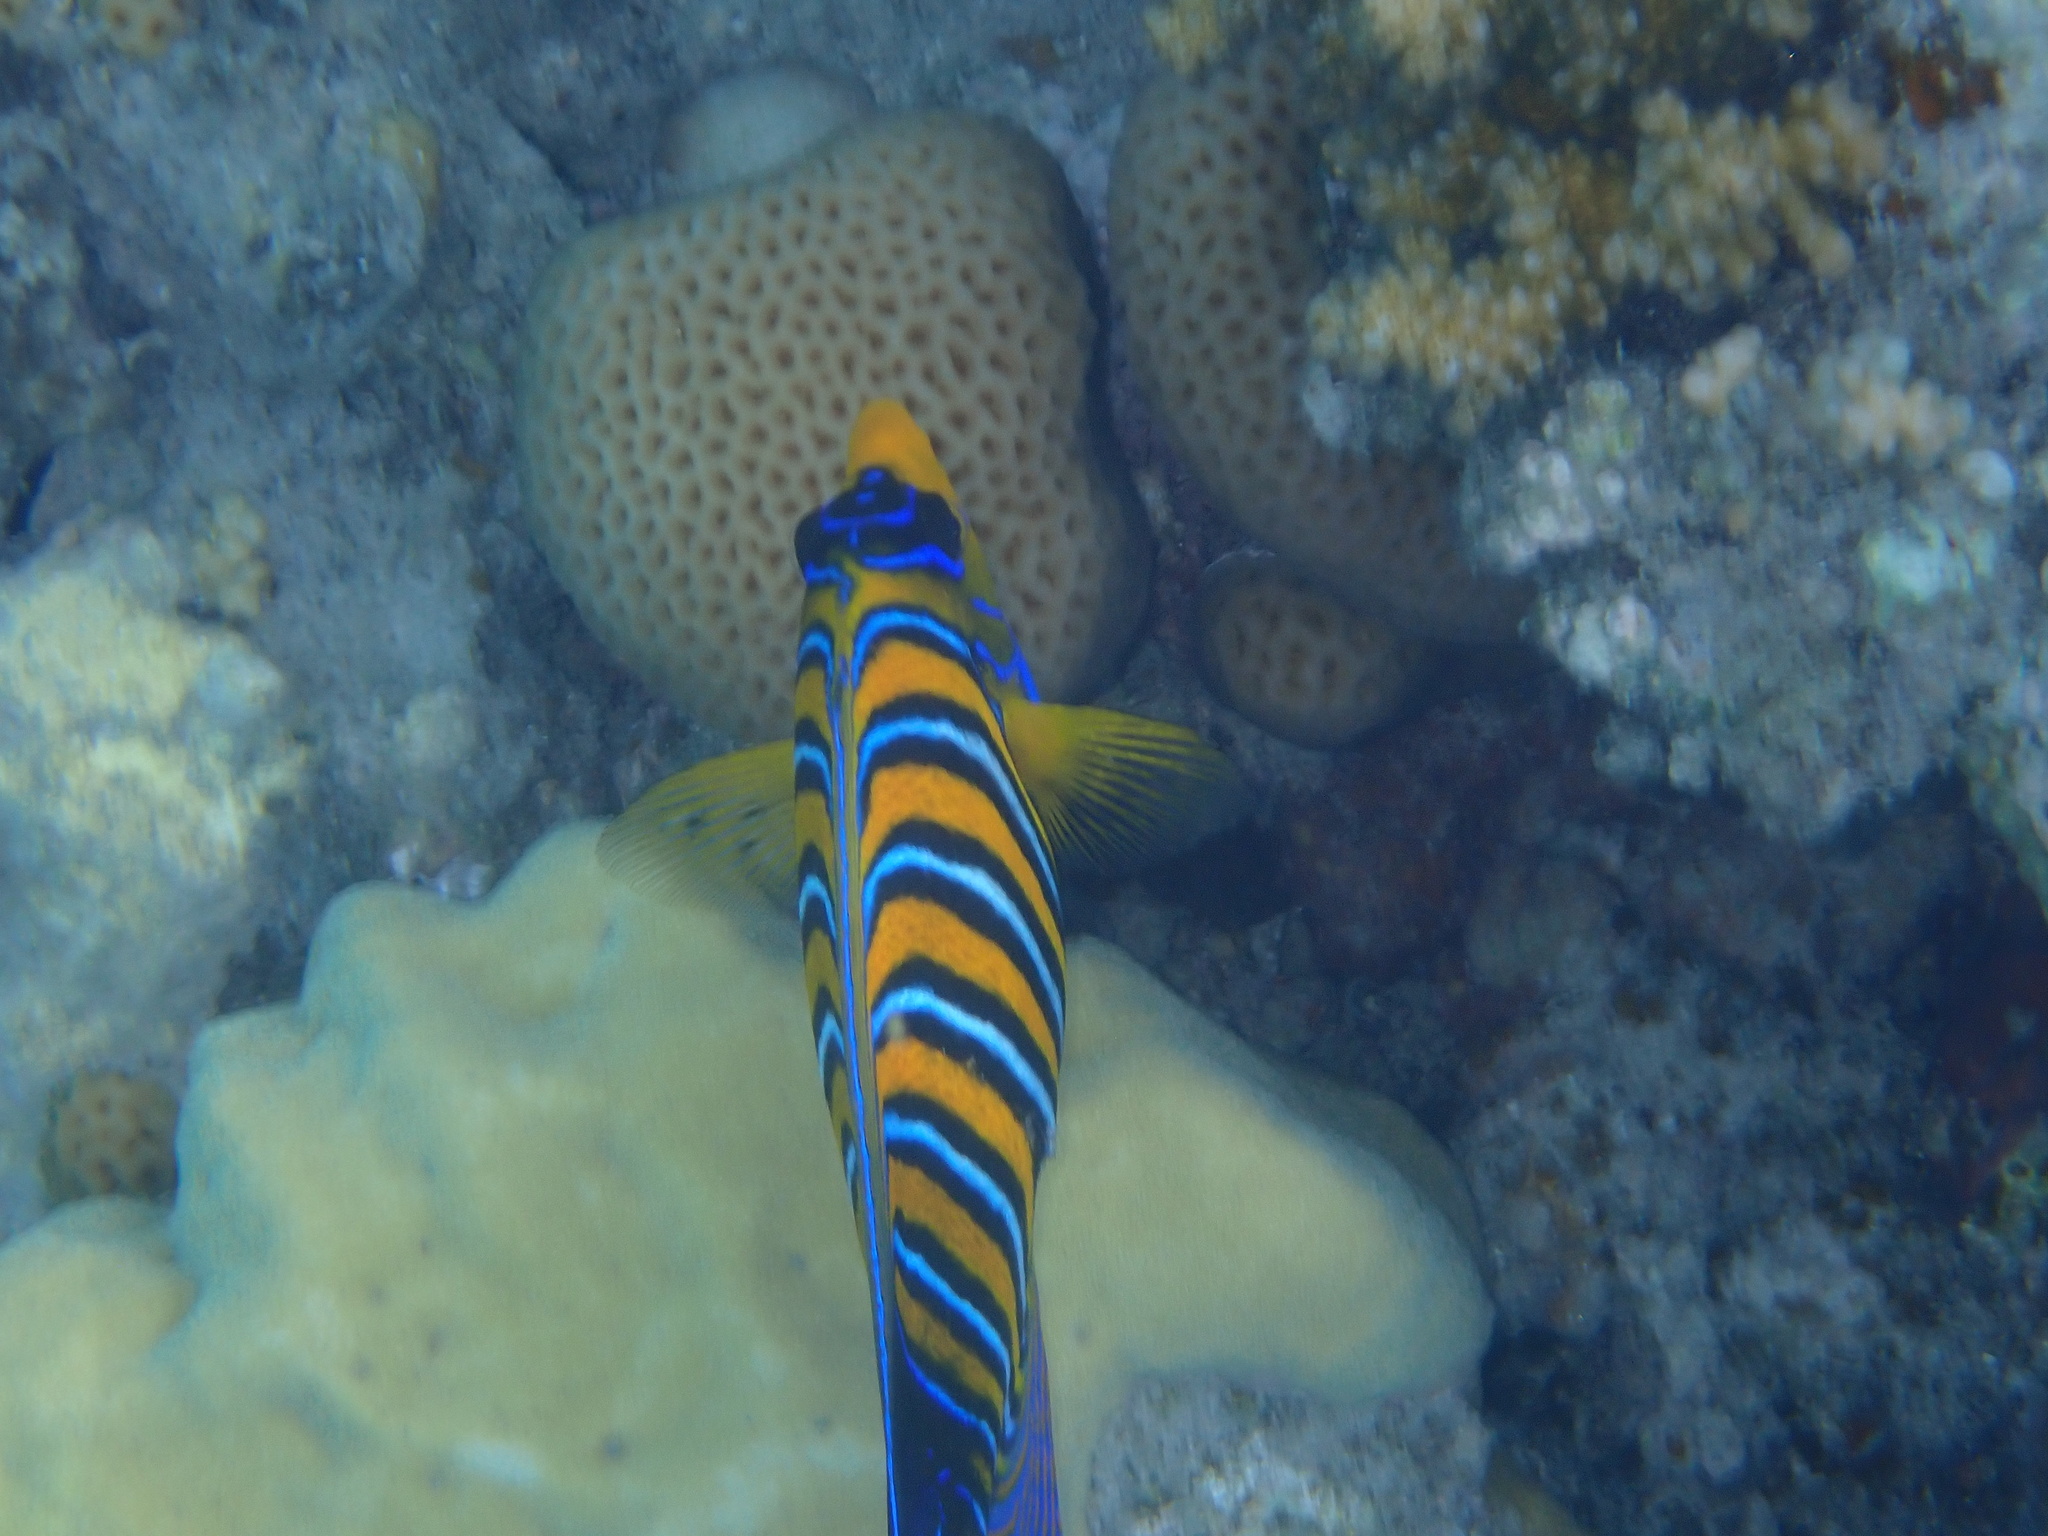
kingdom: Animalia
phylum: Chordata
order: Perciformes
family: Pomacanthidae
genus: Pygoplites
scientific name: Pygoplites diacanthus
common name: Regal angelfish
